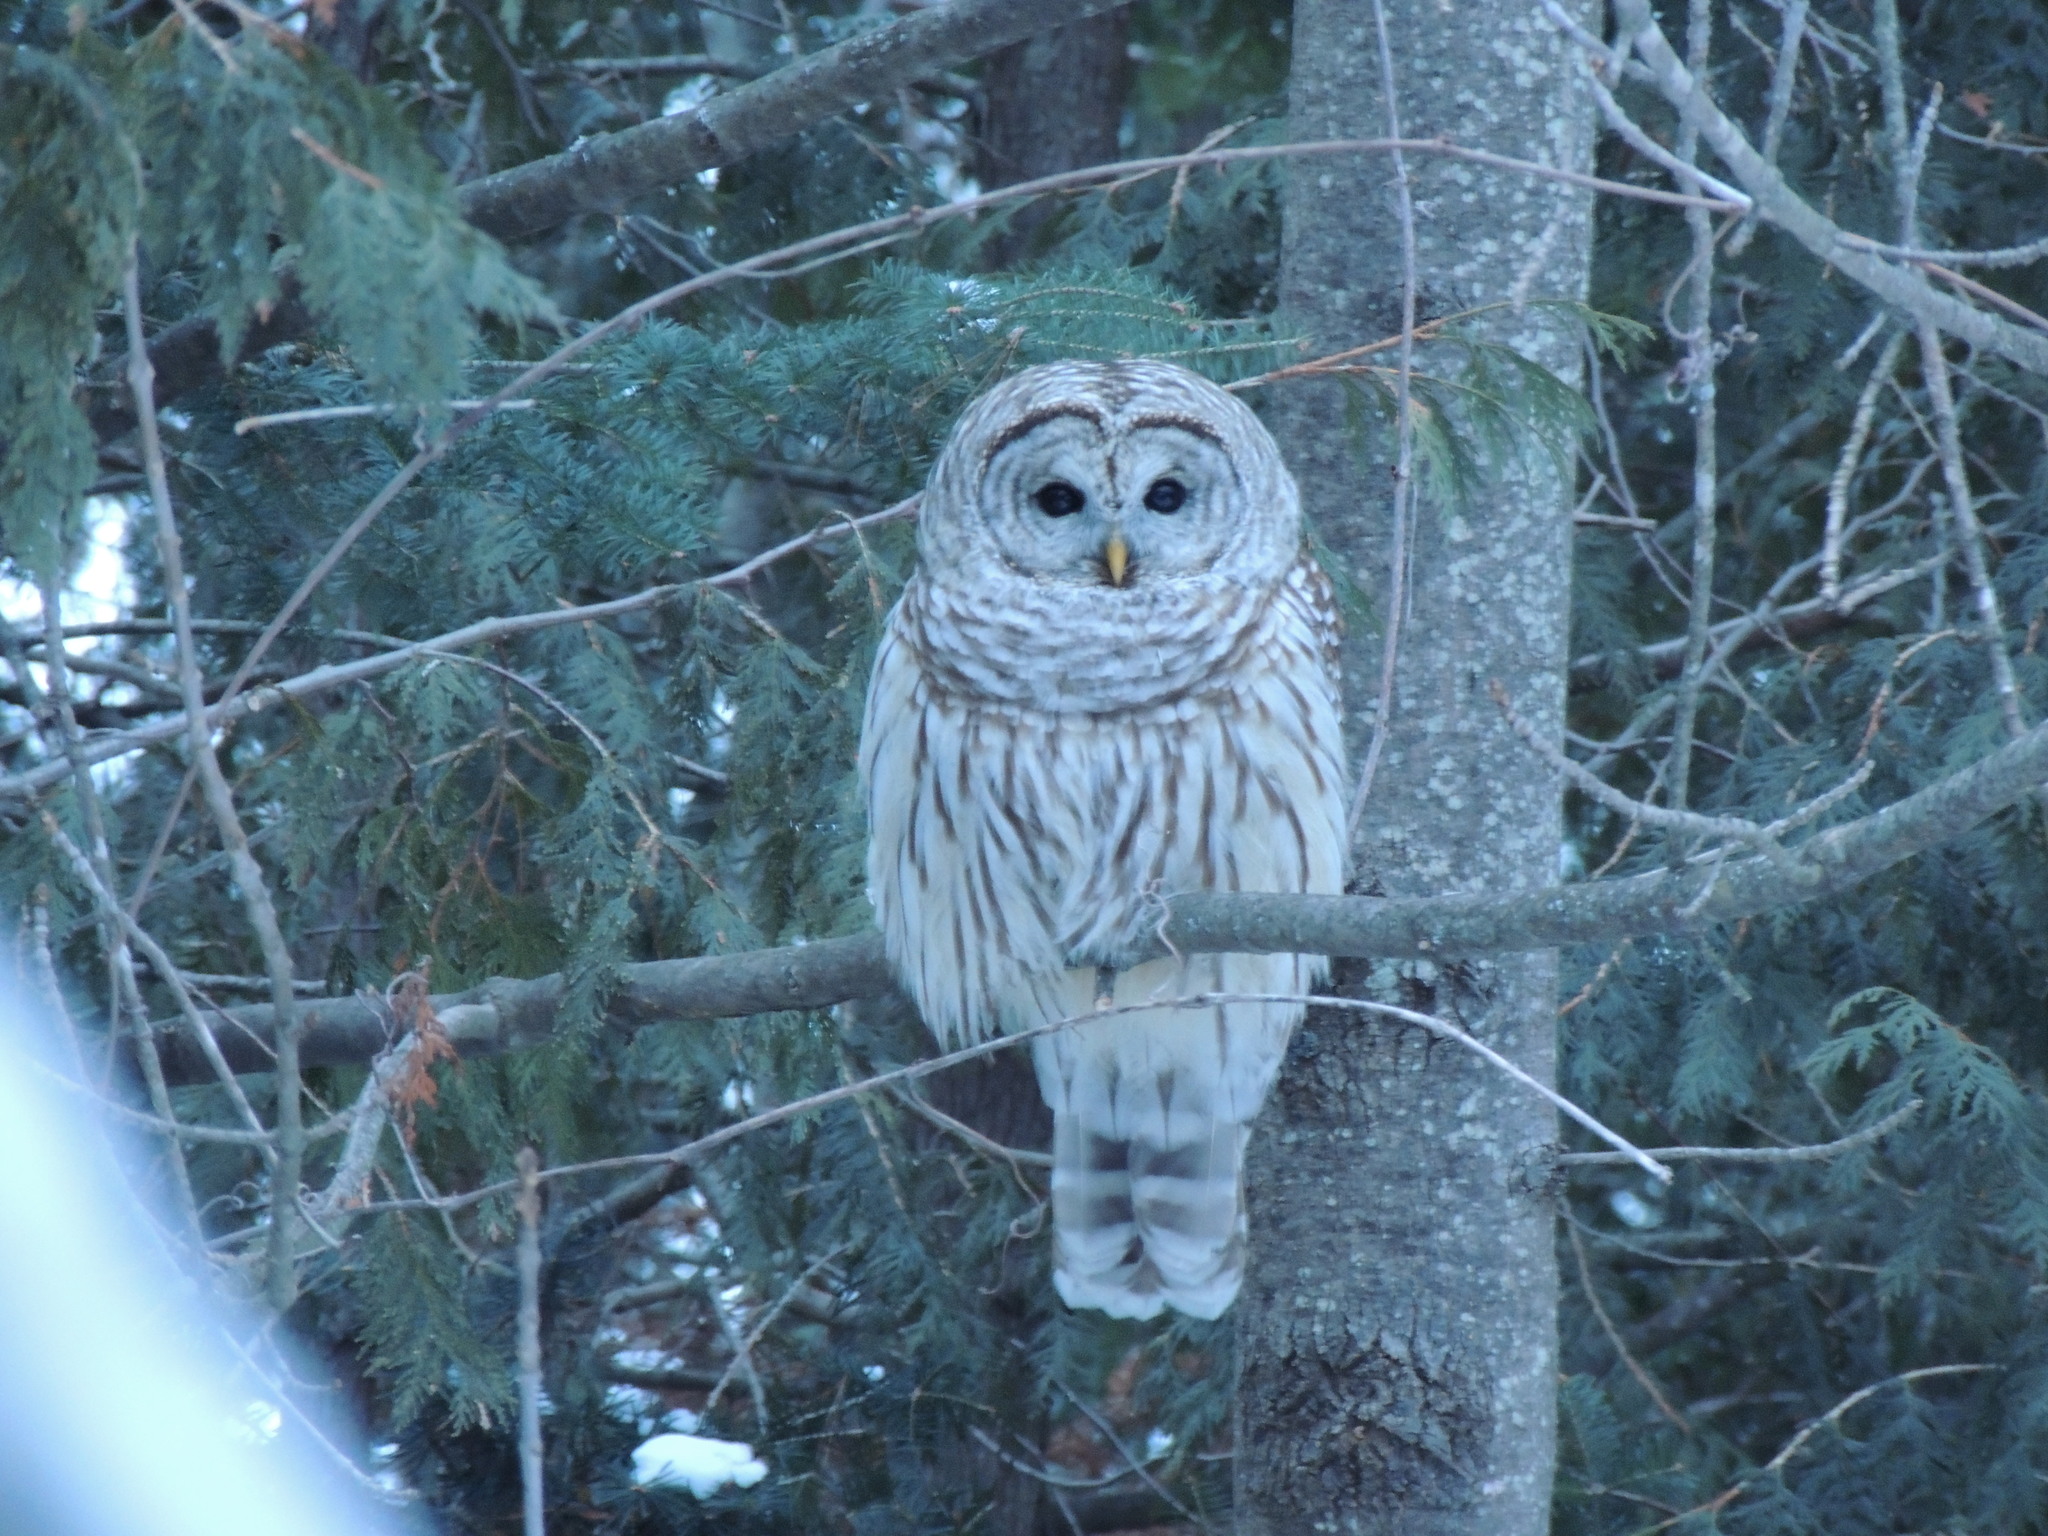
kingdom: Animalia
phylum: Chordata
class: Aves
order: Strigiformes
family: Strigidae
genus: Strix
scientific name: Strix varia
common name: Barred owl
